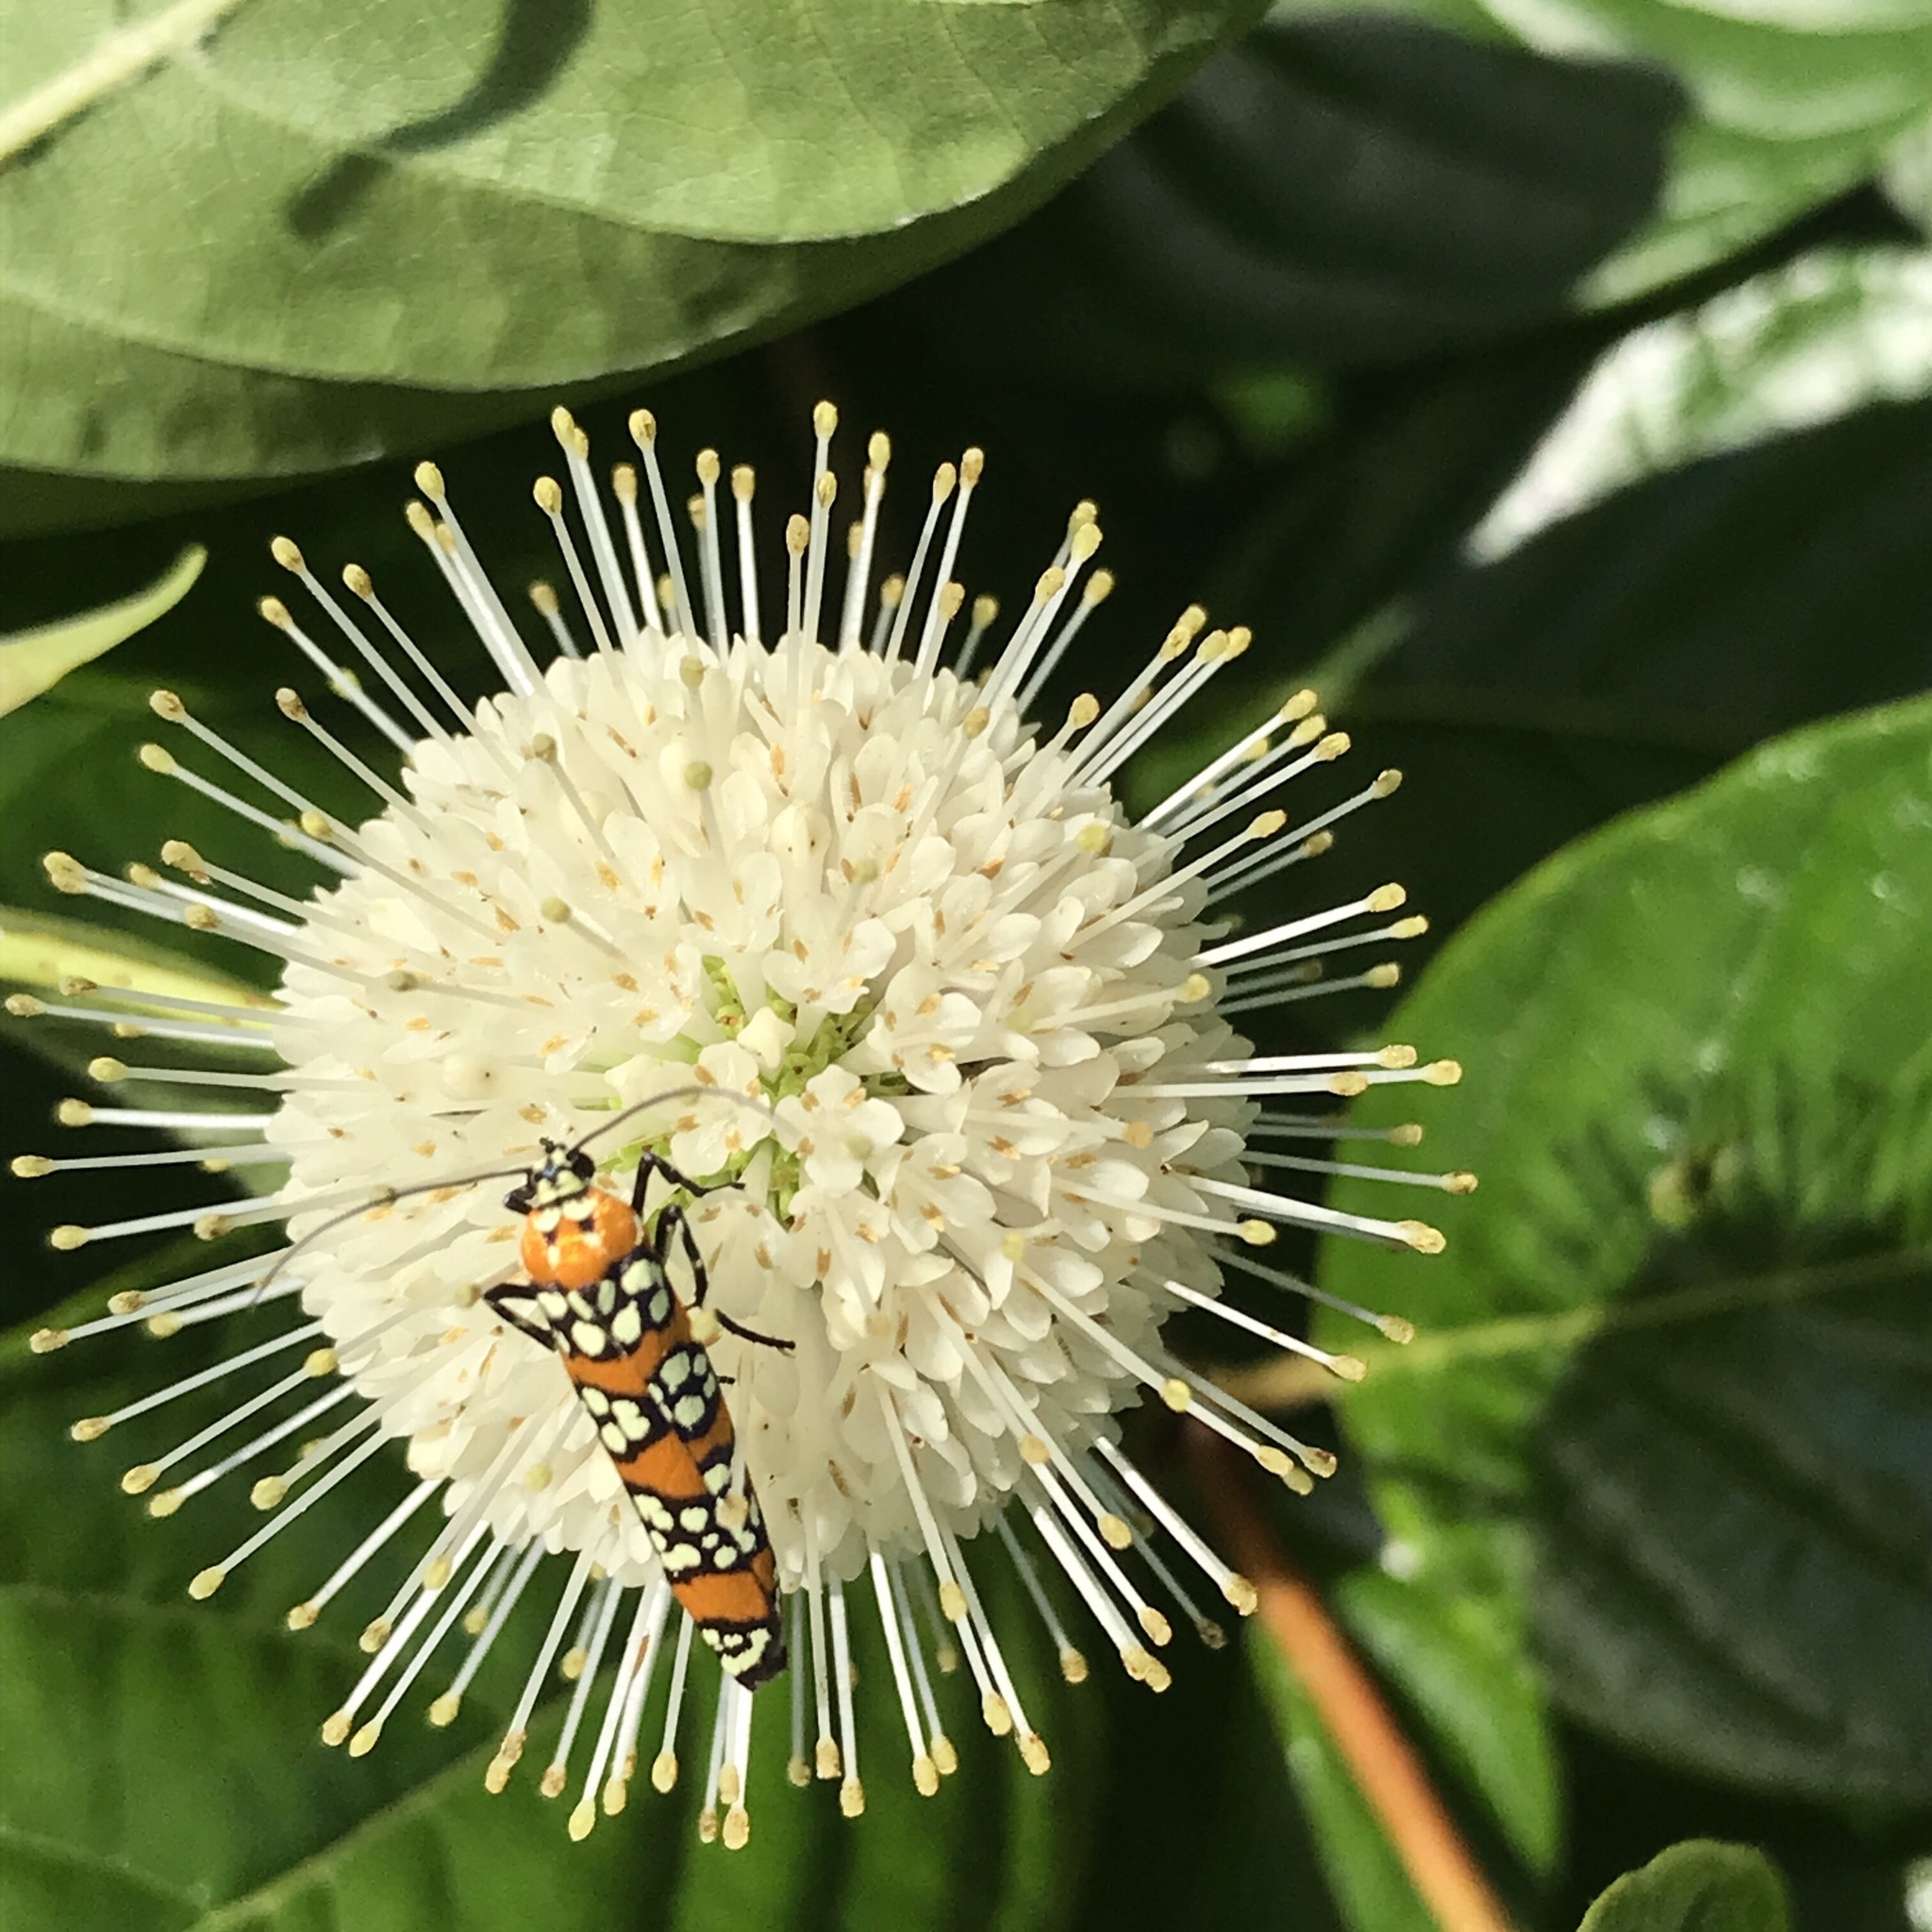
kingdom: Animalia
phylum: Arthropoda
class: Insecta
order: Lepidoptera
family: Attevidae
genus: Atteva
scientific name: Atteva punctella
